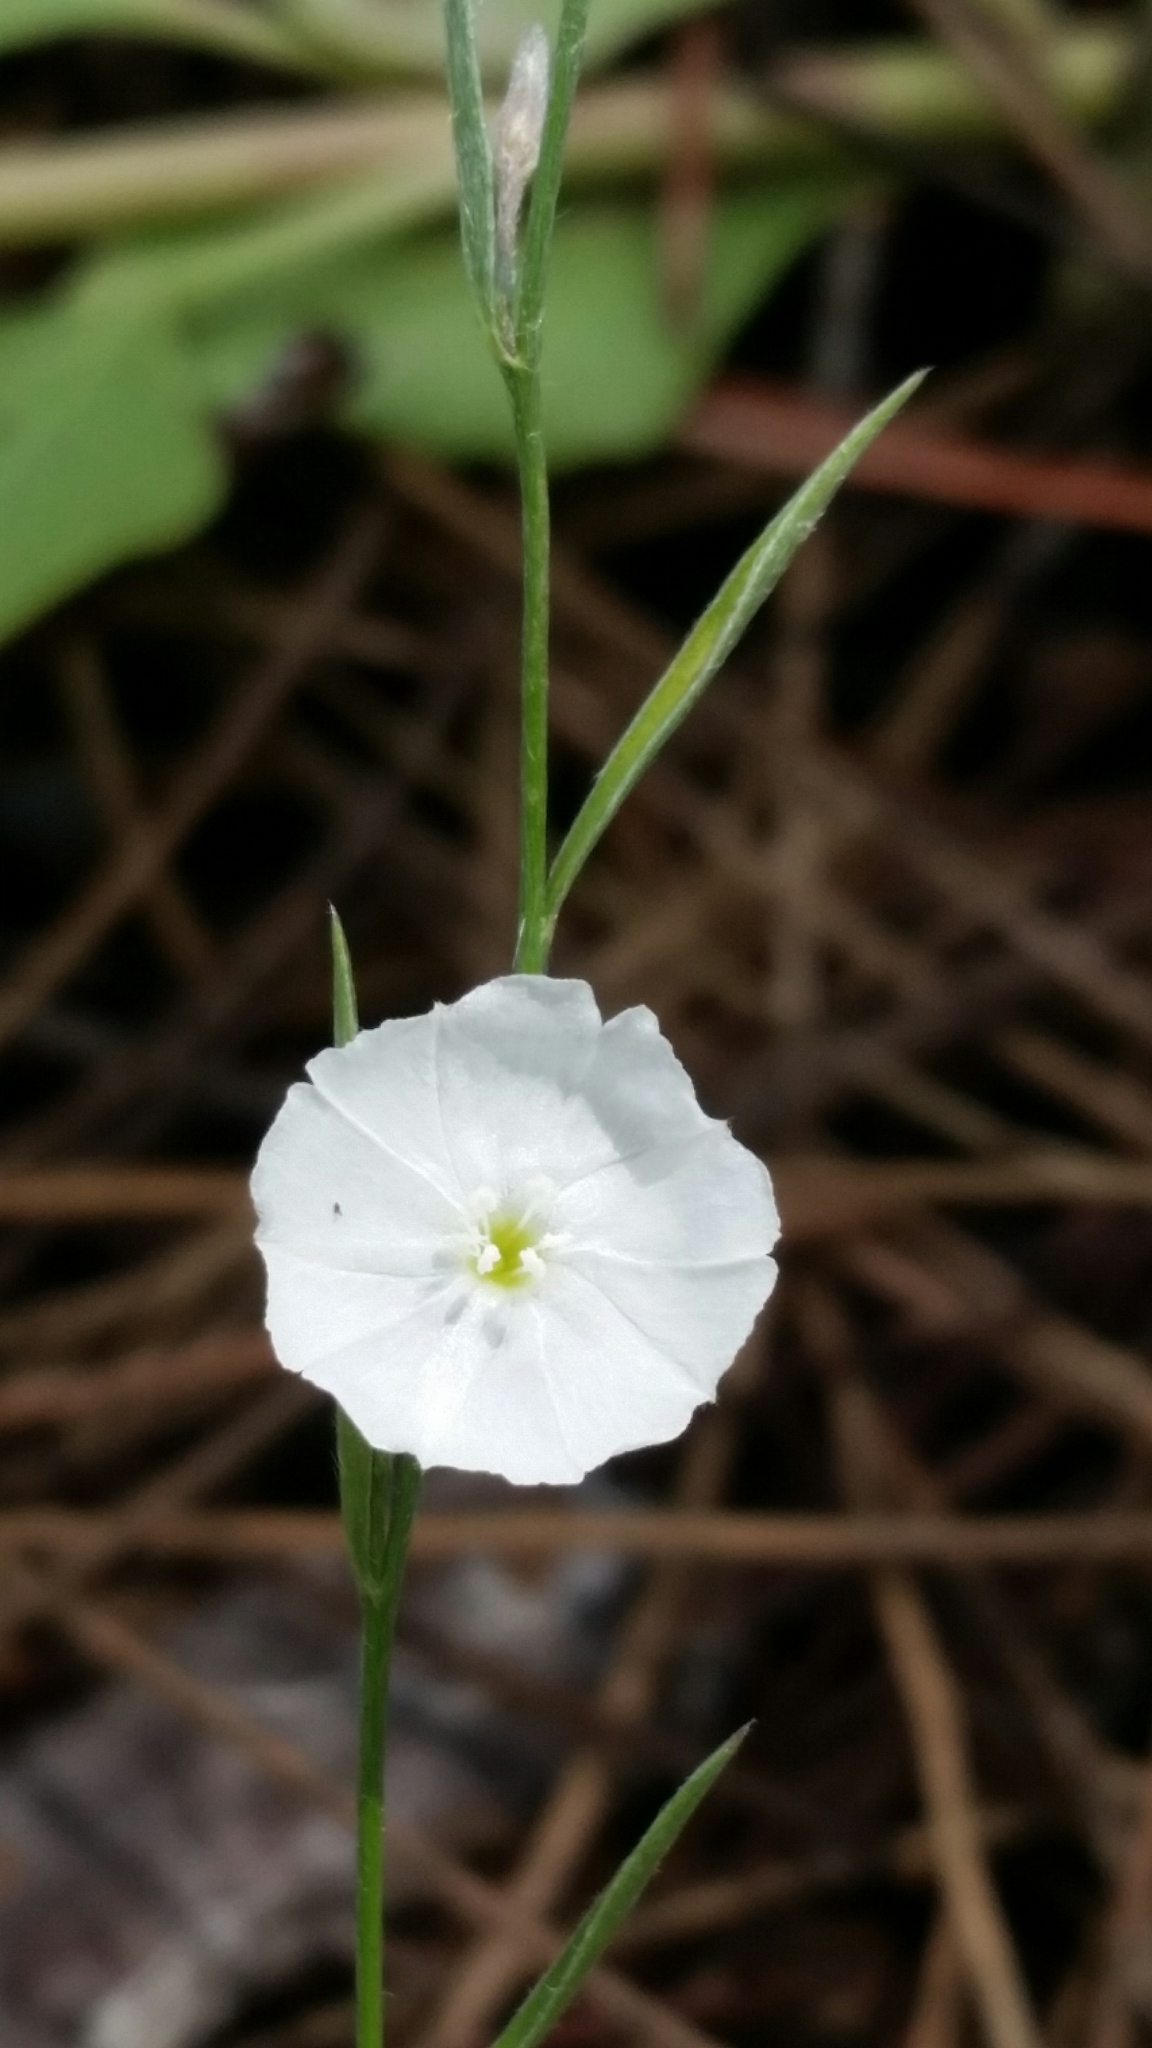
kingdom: Plantae
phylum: Tracheophyta
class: Magnoliopsida
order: Solanales
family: Convolvulaceae
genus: Evolvulus
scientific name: Evolvulus sericeus
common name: Blue dots
